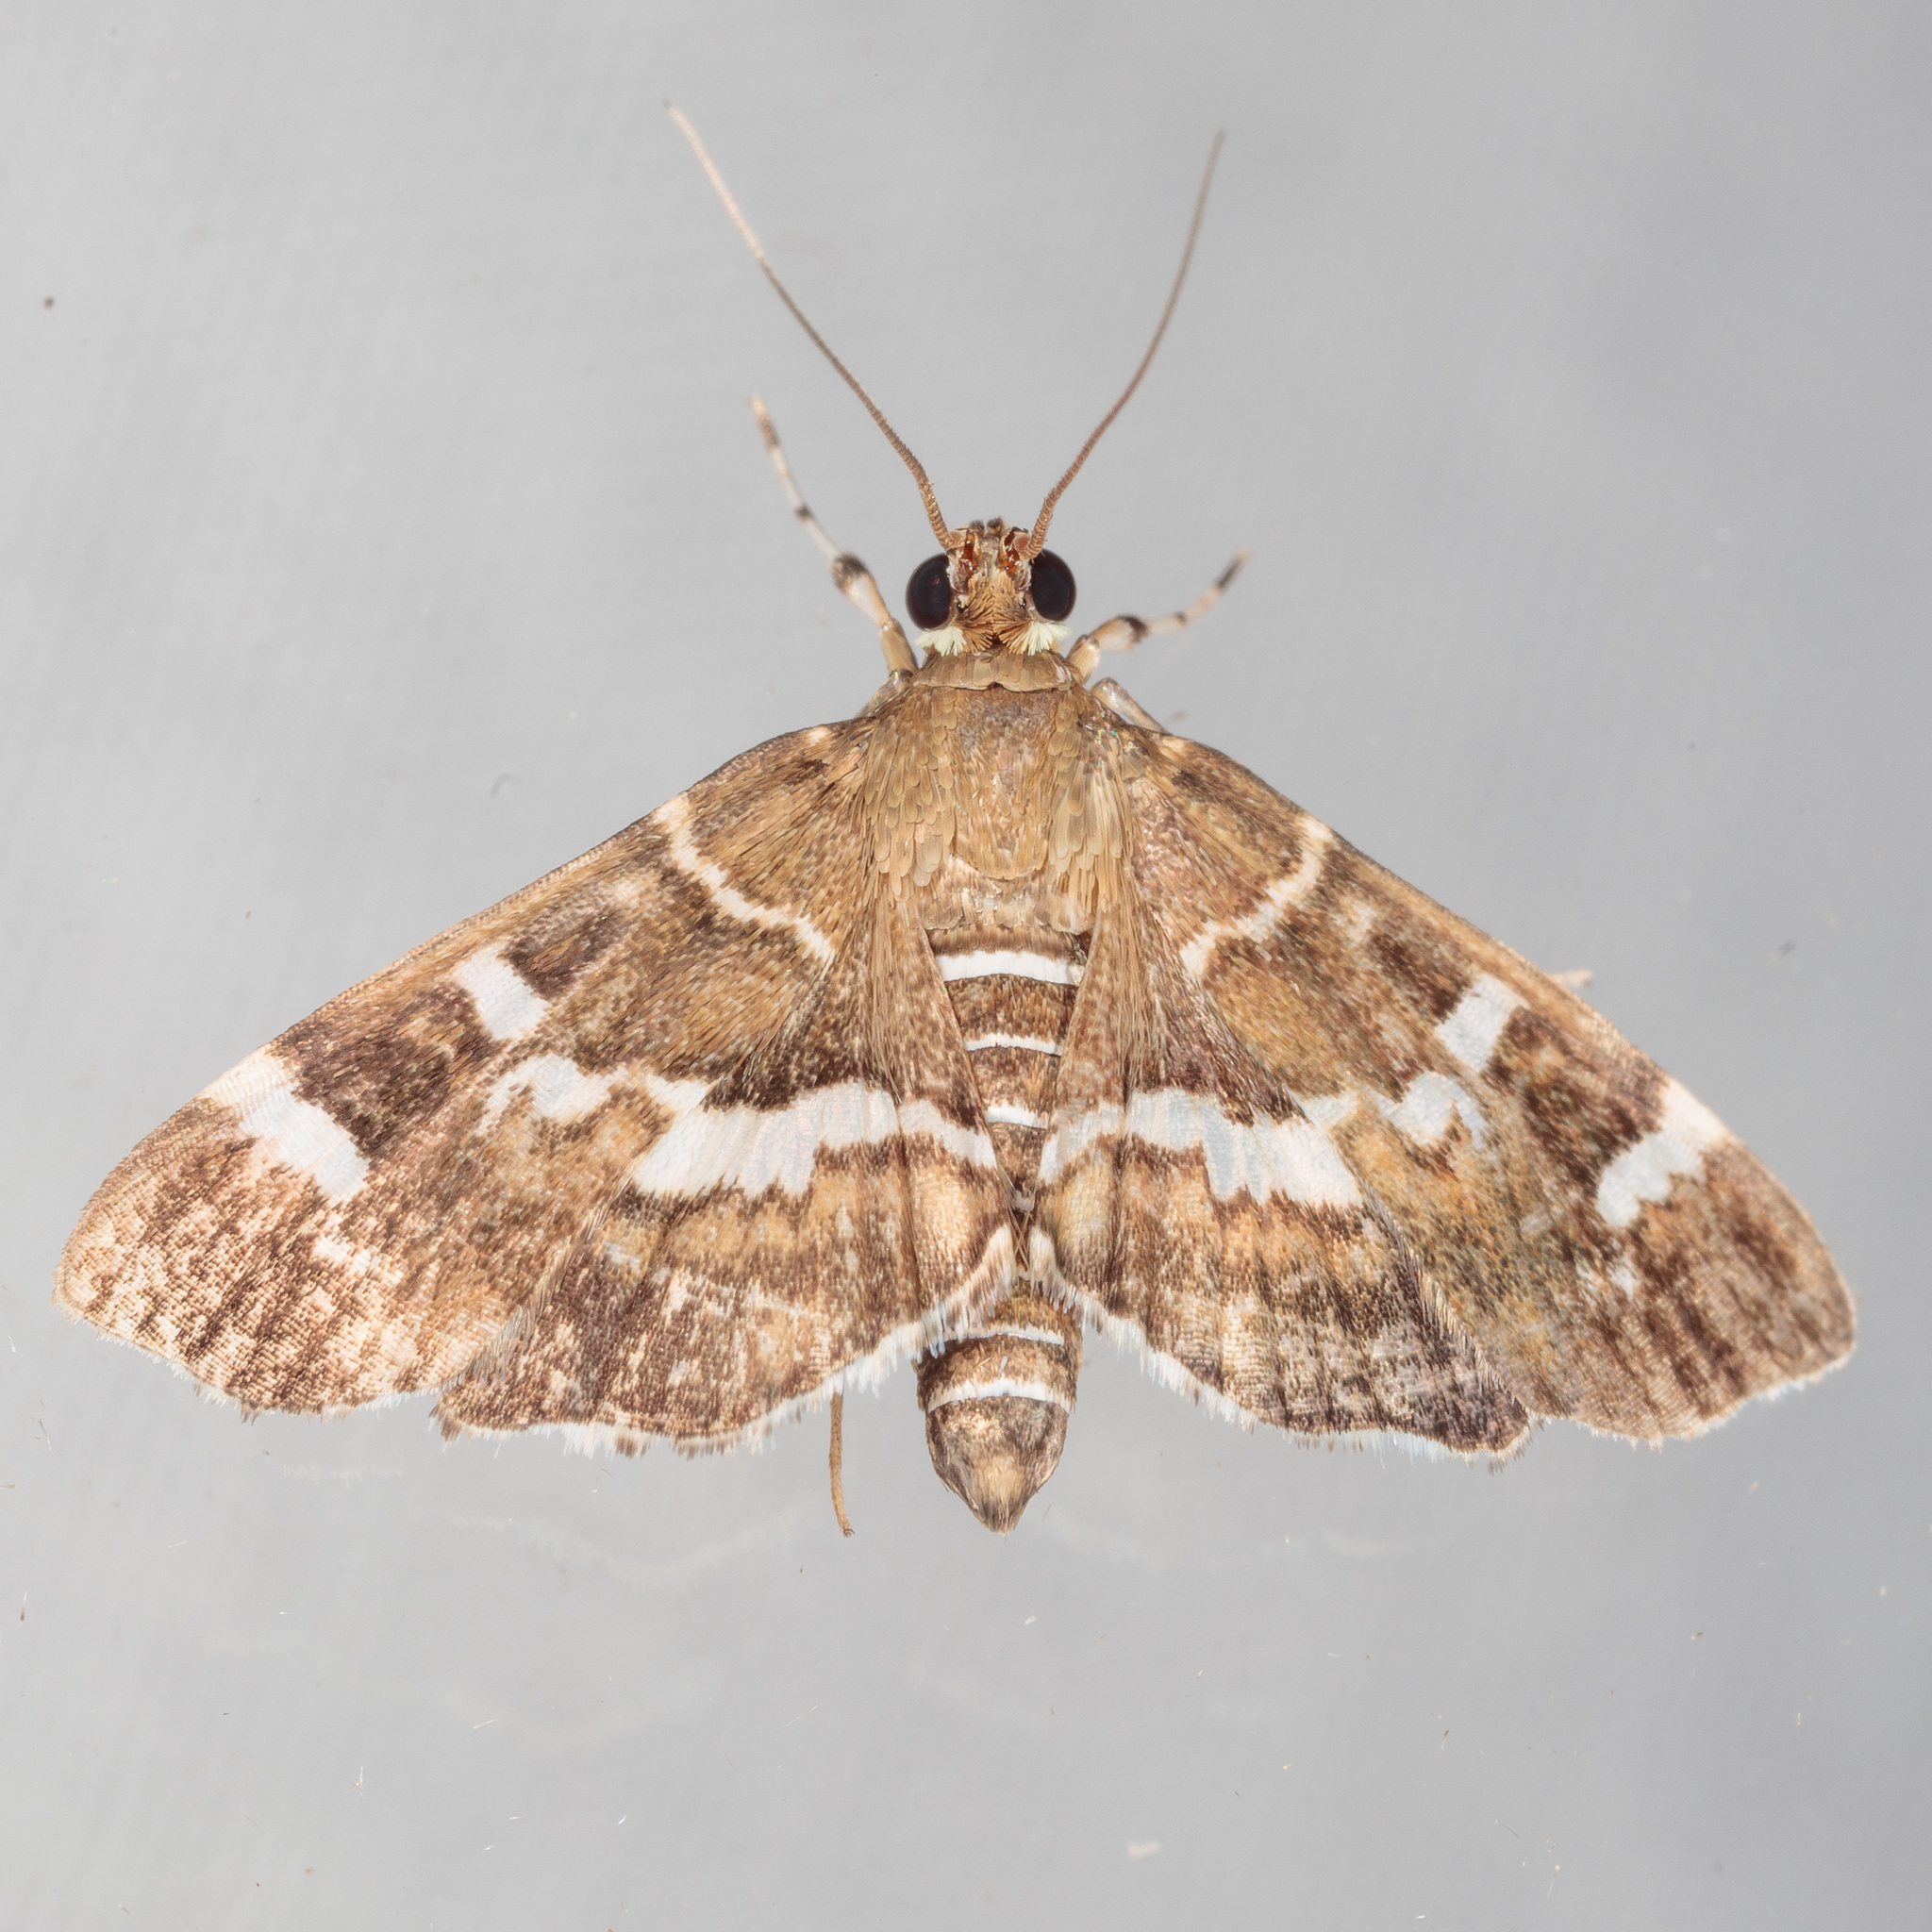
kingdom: Animalia
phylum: Arthropoda
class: Insecta
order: Lepidoptera
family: Crambidae
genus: Hymenia
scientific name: Hymenia perspectalis
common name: Spotted beet webworm
